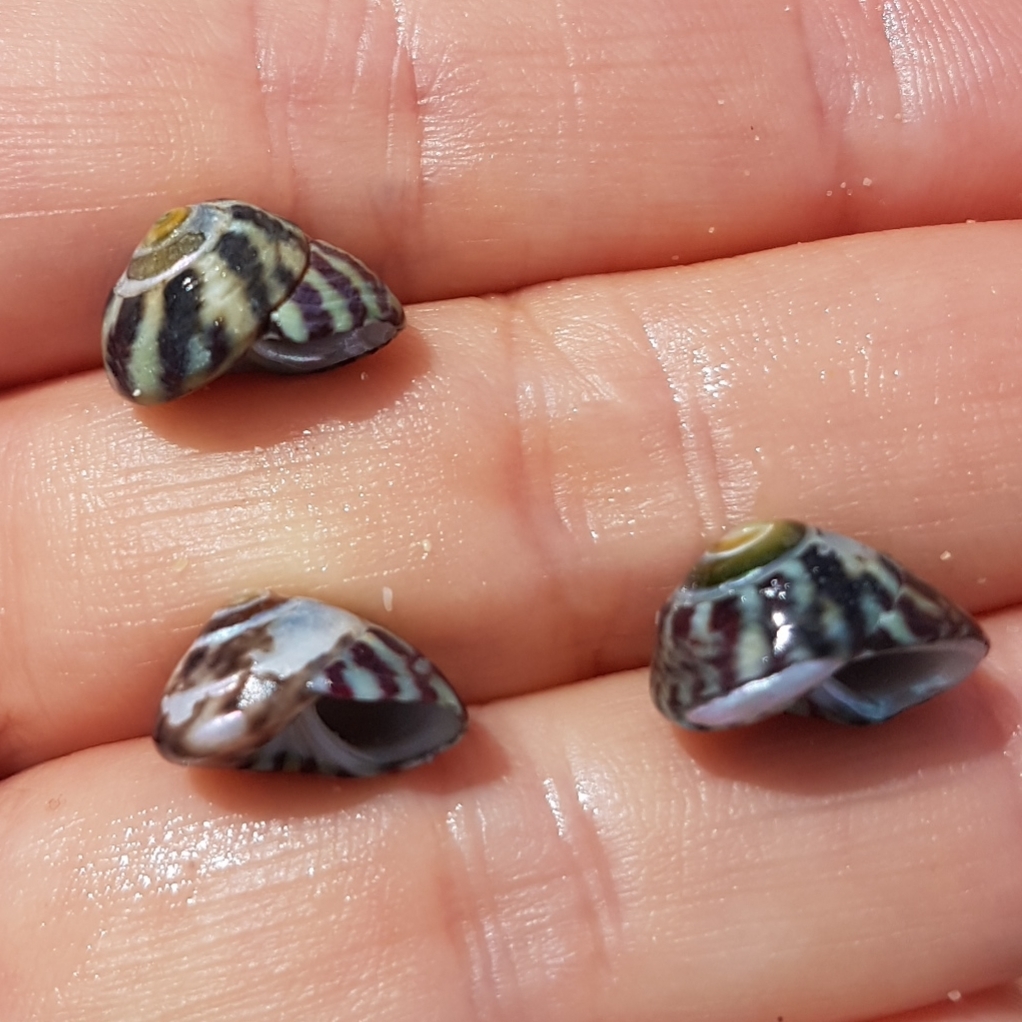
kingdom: Animalia
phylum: Mollusca
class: Gastropoda
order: Trochida
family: Trochidae
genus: Steromphala
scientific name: Steromphala umbilicalis
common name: Flat top shell
